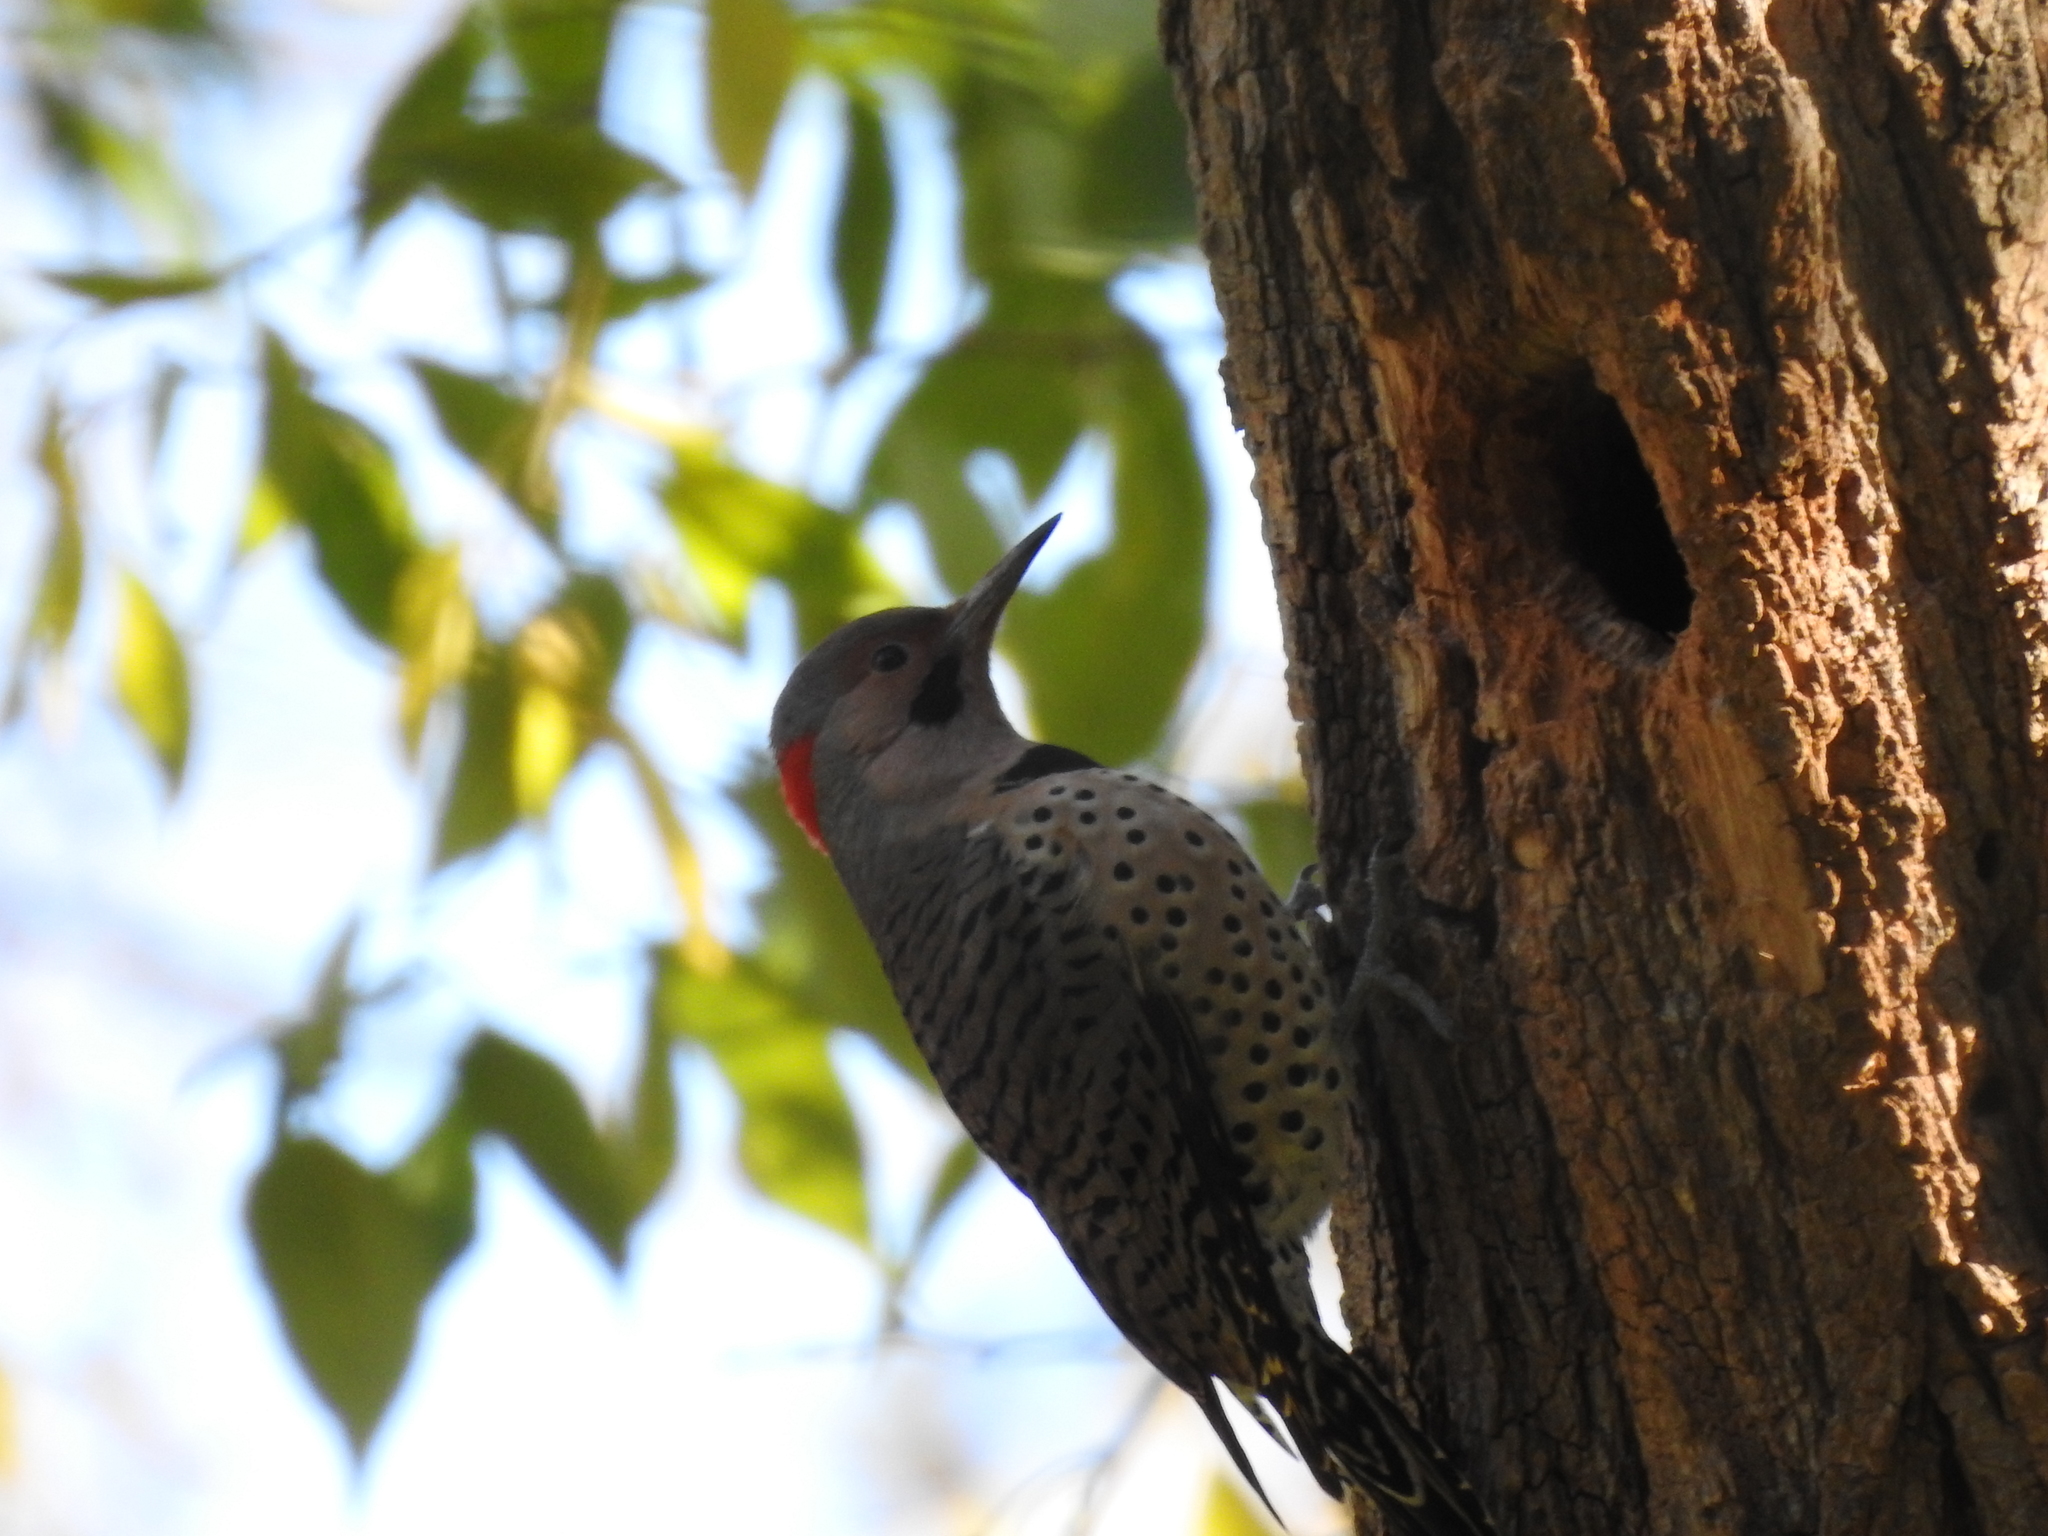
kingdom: Animalia
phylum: Chordata
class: Aves
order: Piciformes
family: Picidae
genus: Colaptes
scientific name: Colaptes auratus
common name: Northern flicker
